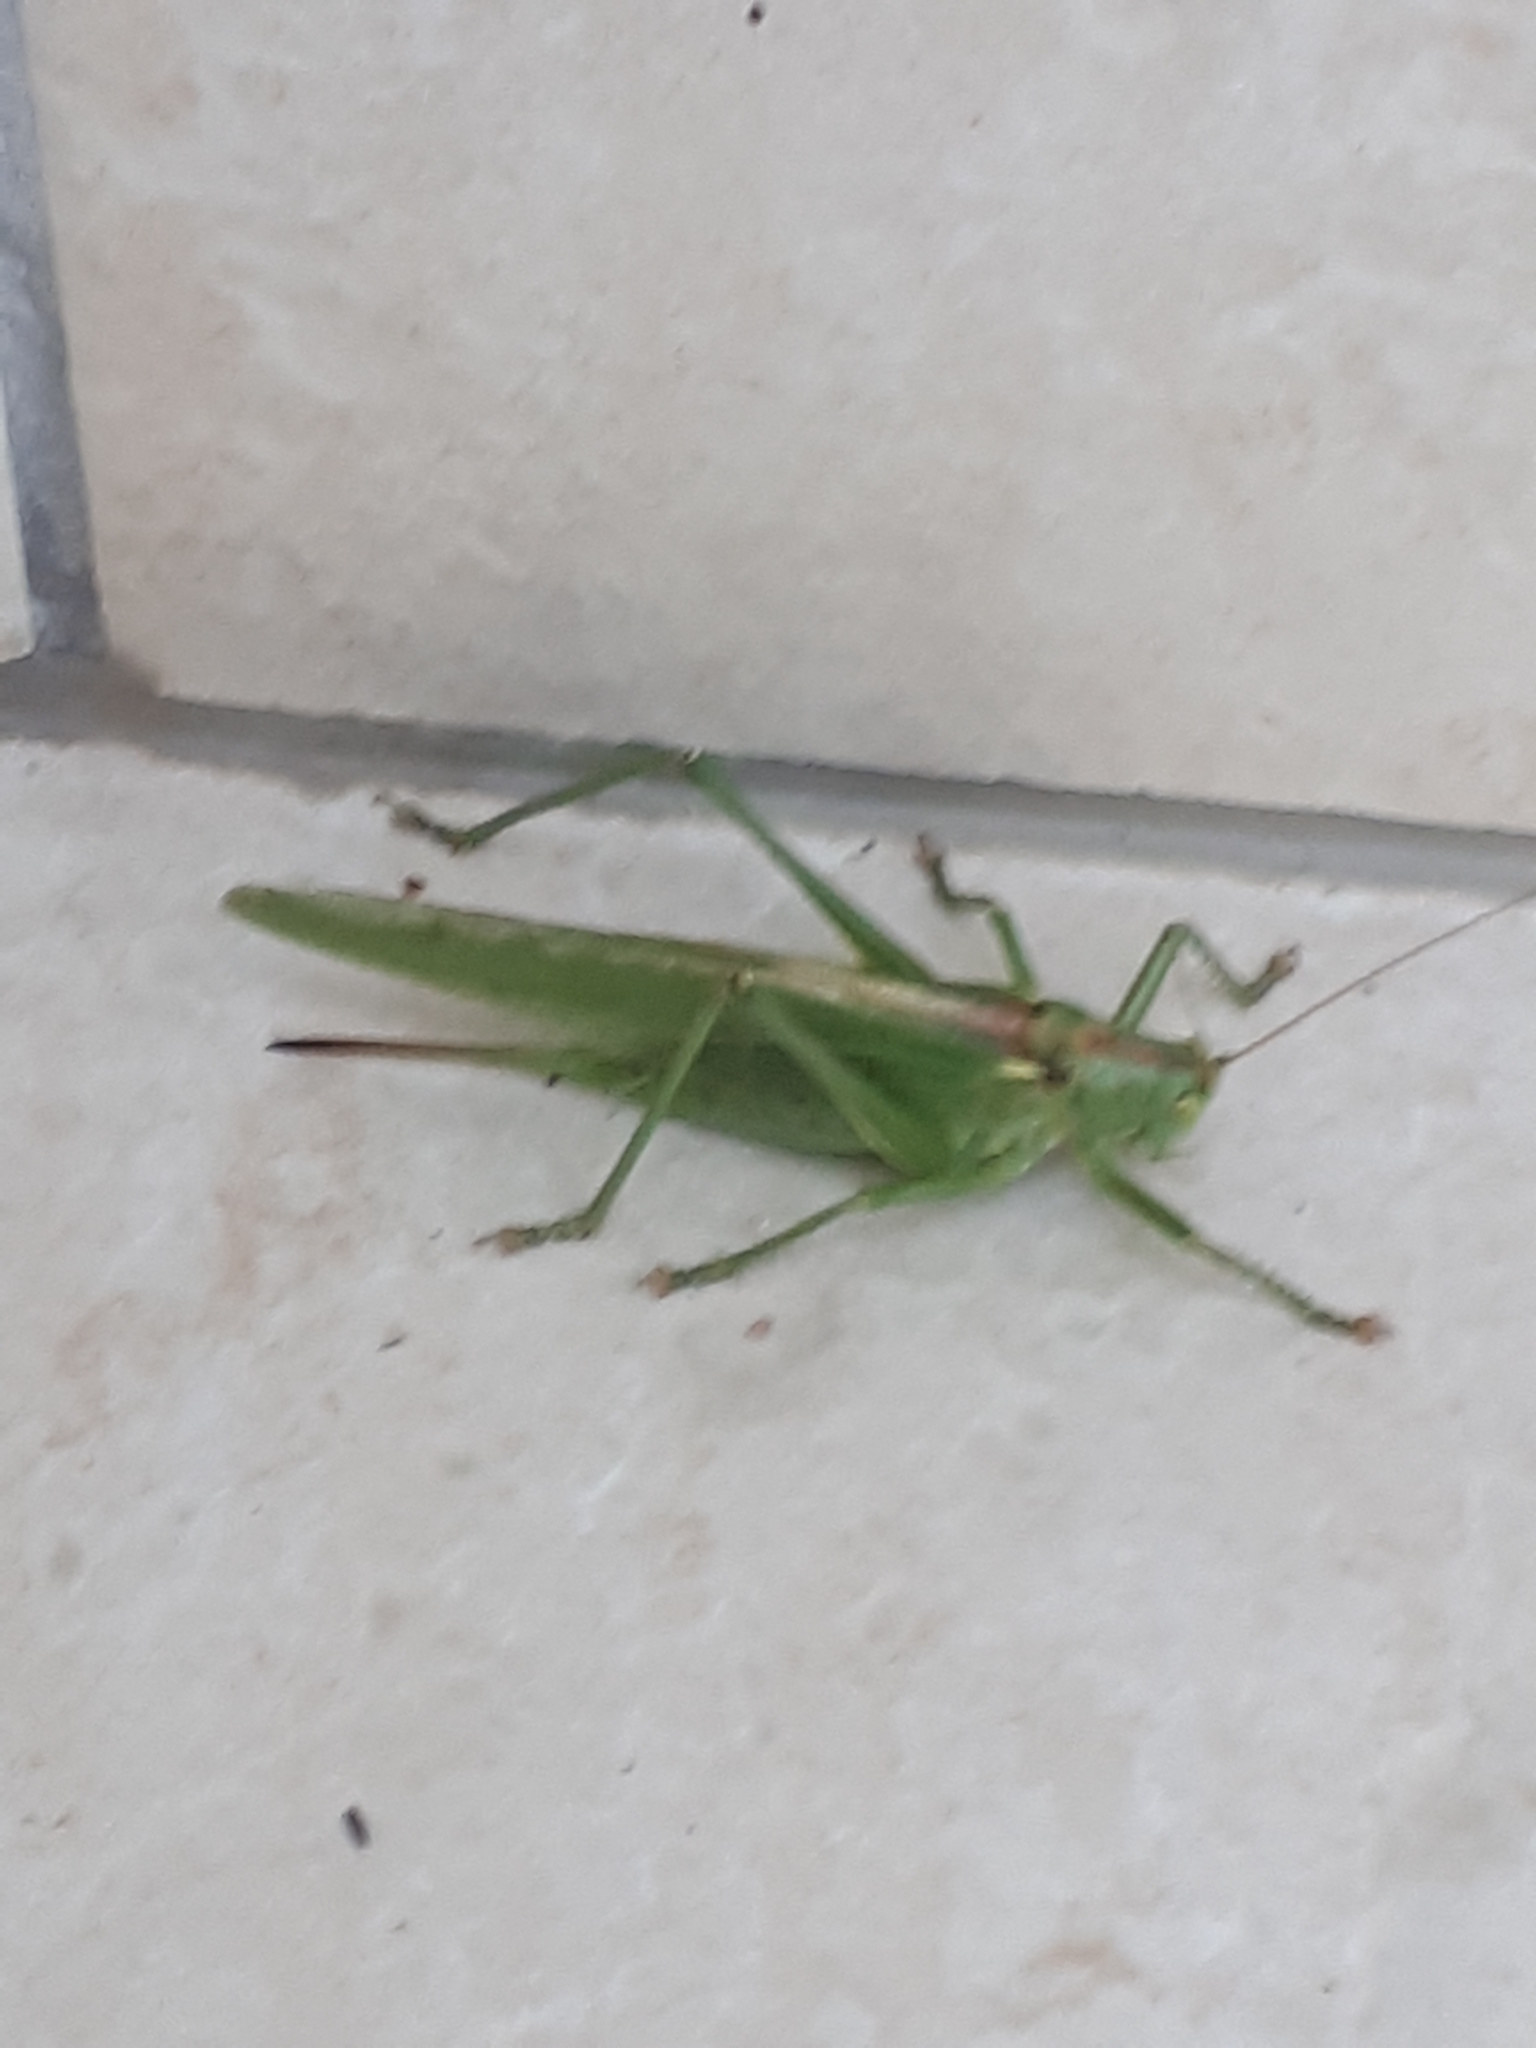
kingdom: Animalia
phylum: Arthropoda
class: Insecta
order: Orthoptera
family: Tettigoniidae
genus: Tettigonia
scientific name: Tettigonia viridissima
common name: Great green bush-cricket
